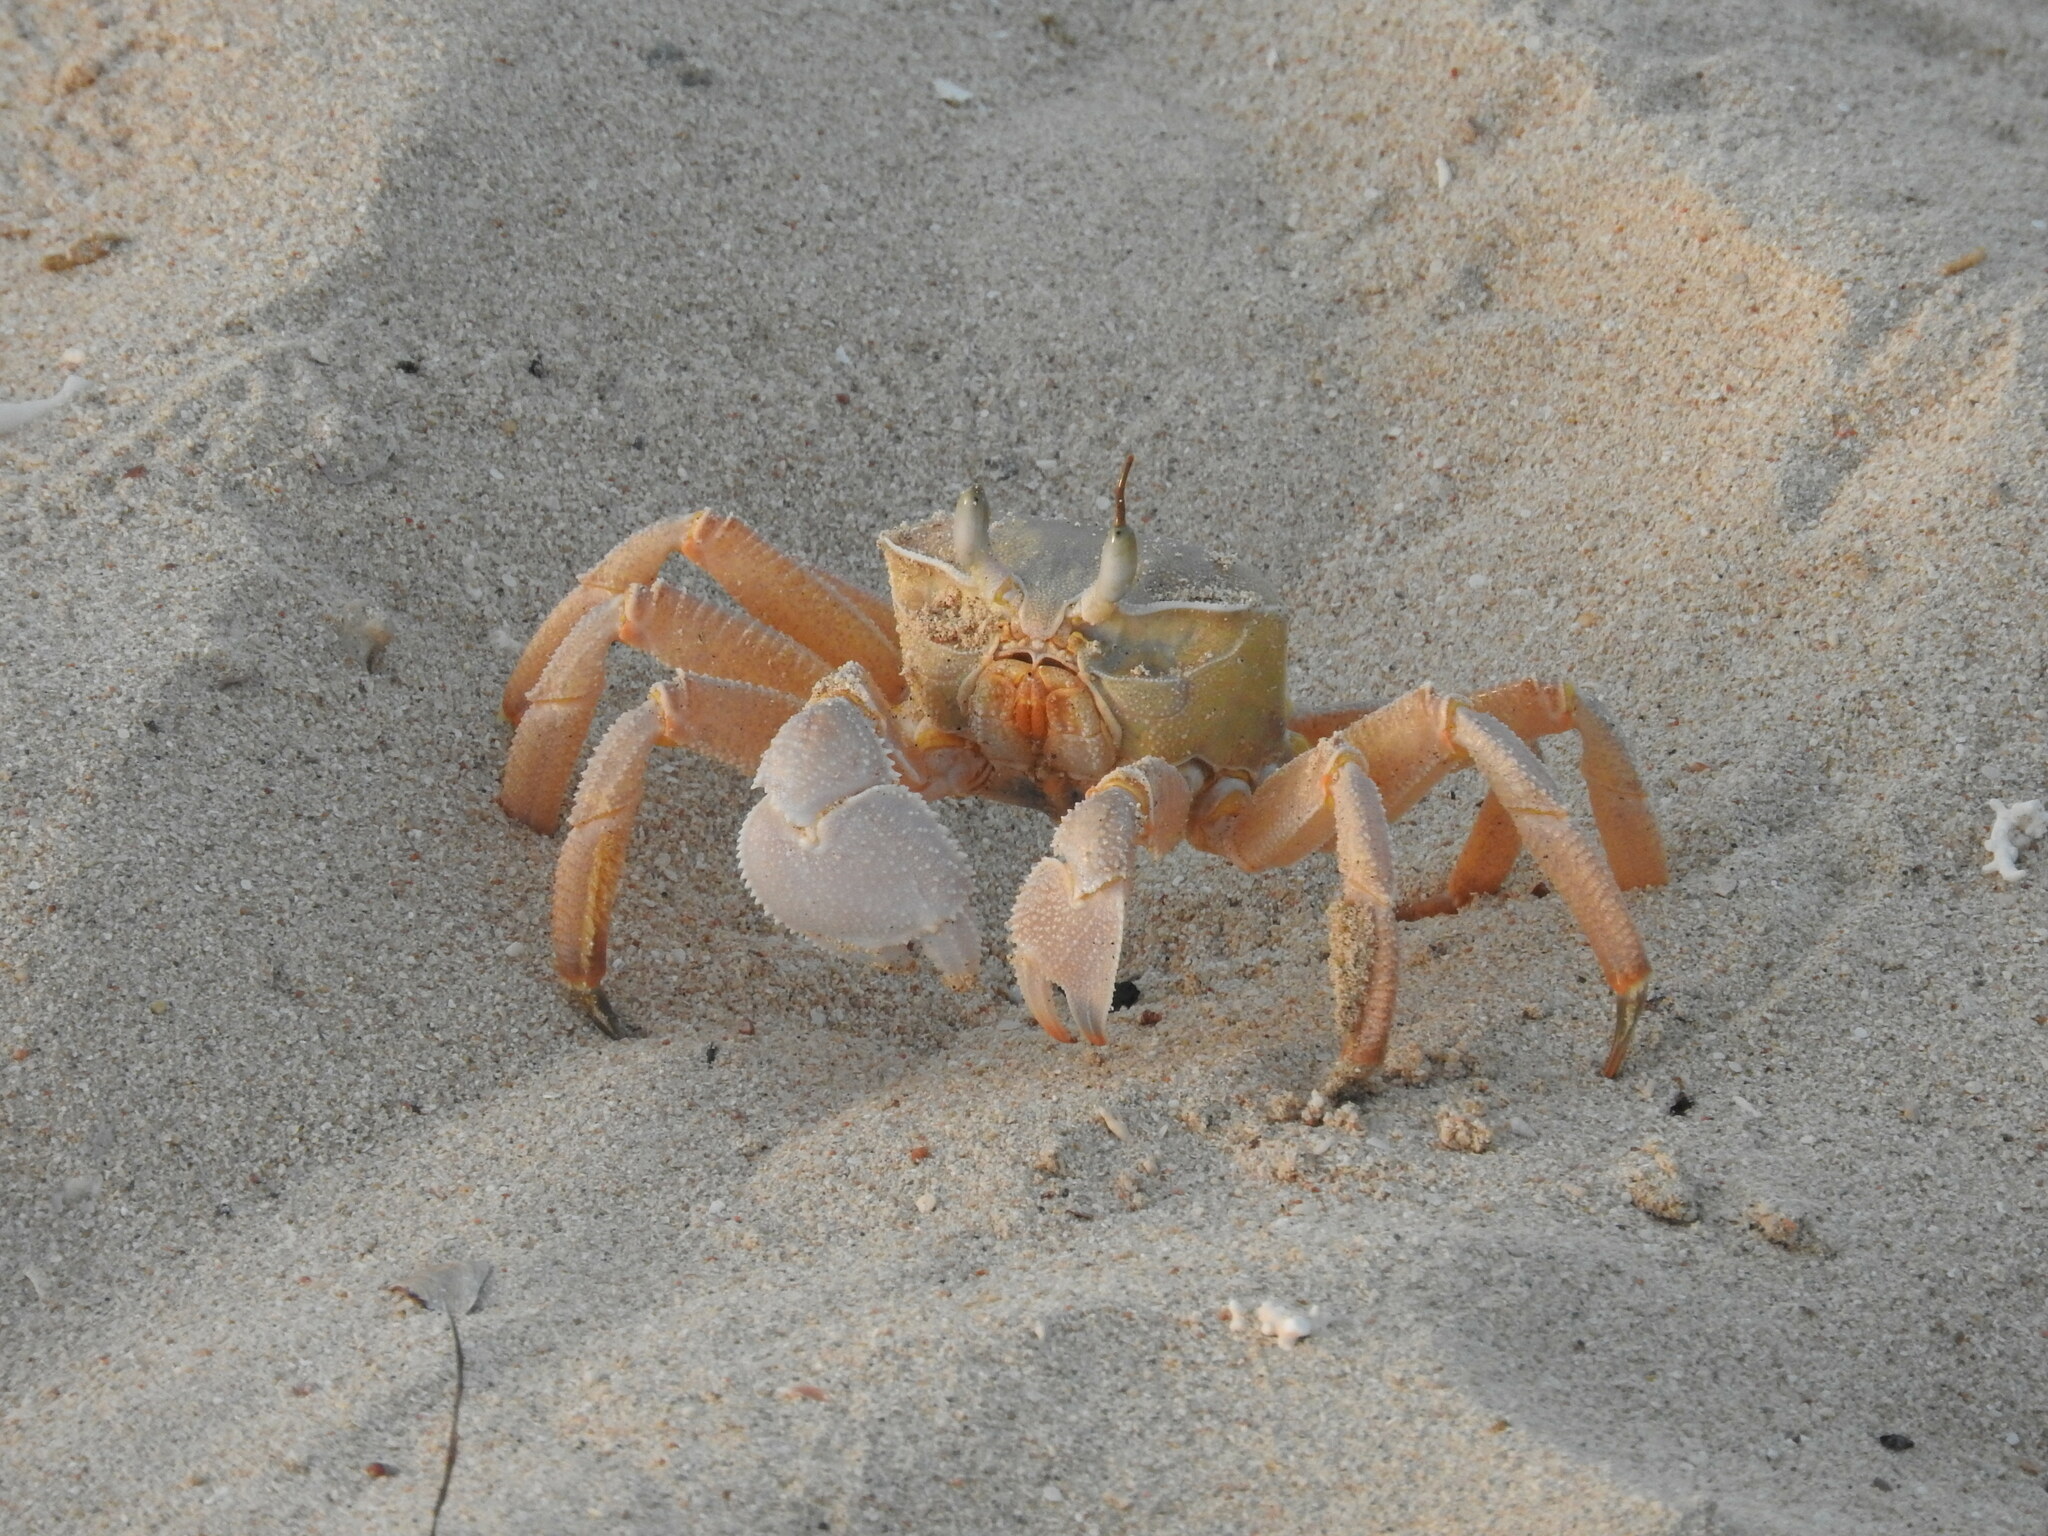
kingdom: Animalia
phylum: Arthropoda
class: Malacostraca
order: Decapoda
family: Ocypodidae
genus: Ocypode
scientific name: Ocypode saratan
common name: Red sea ghost crab
